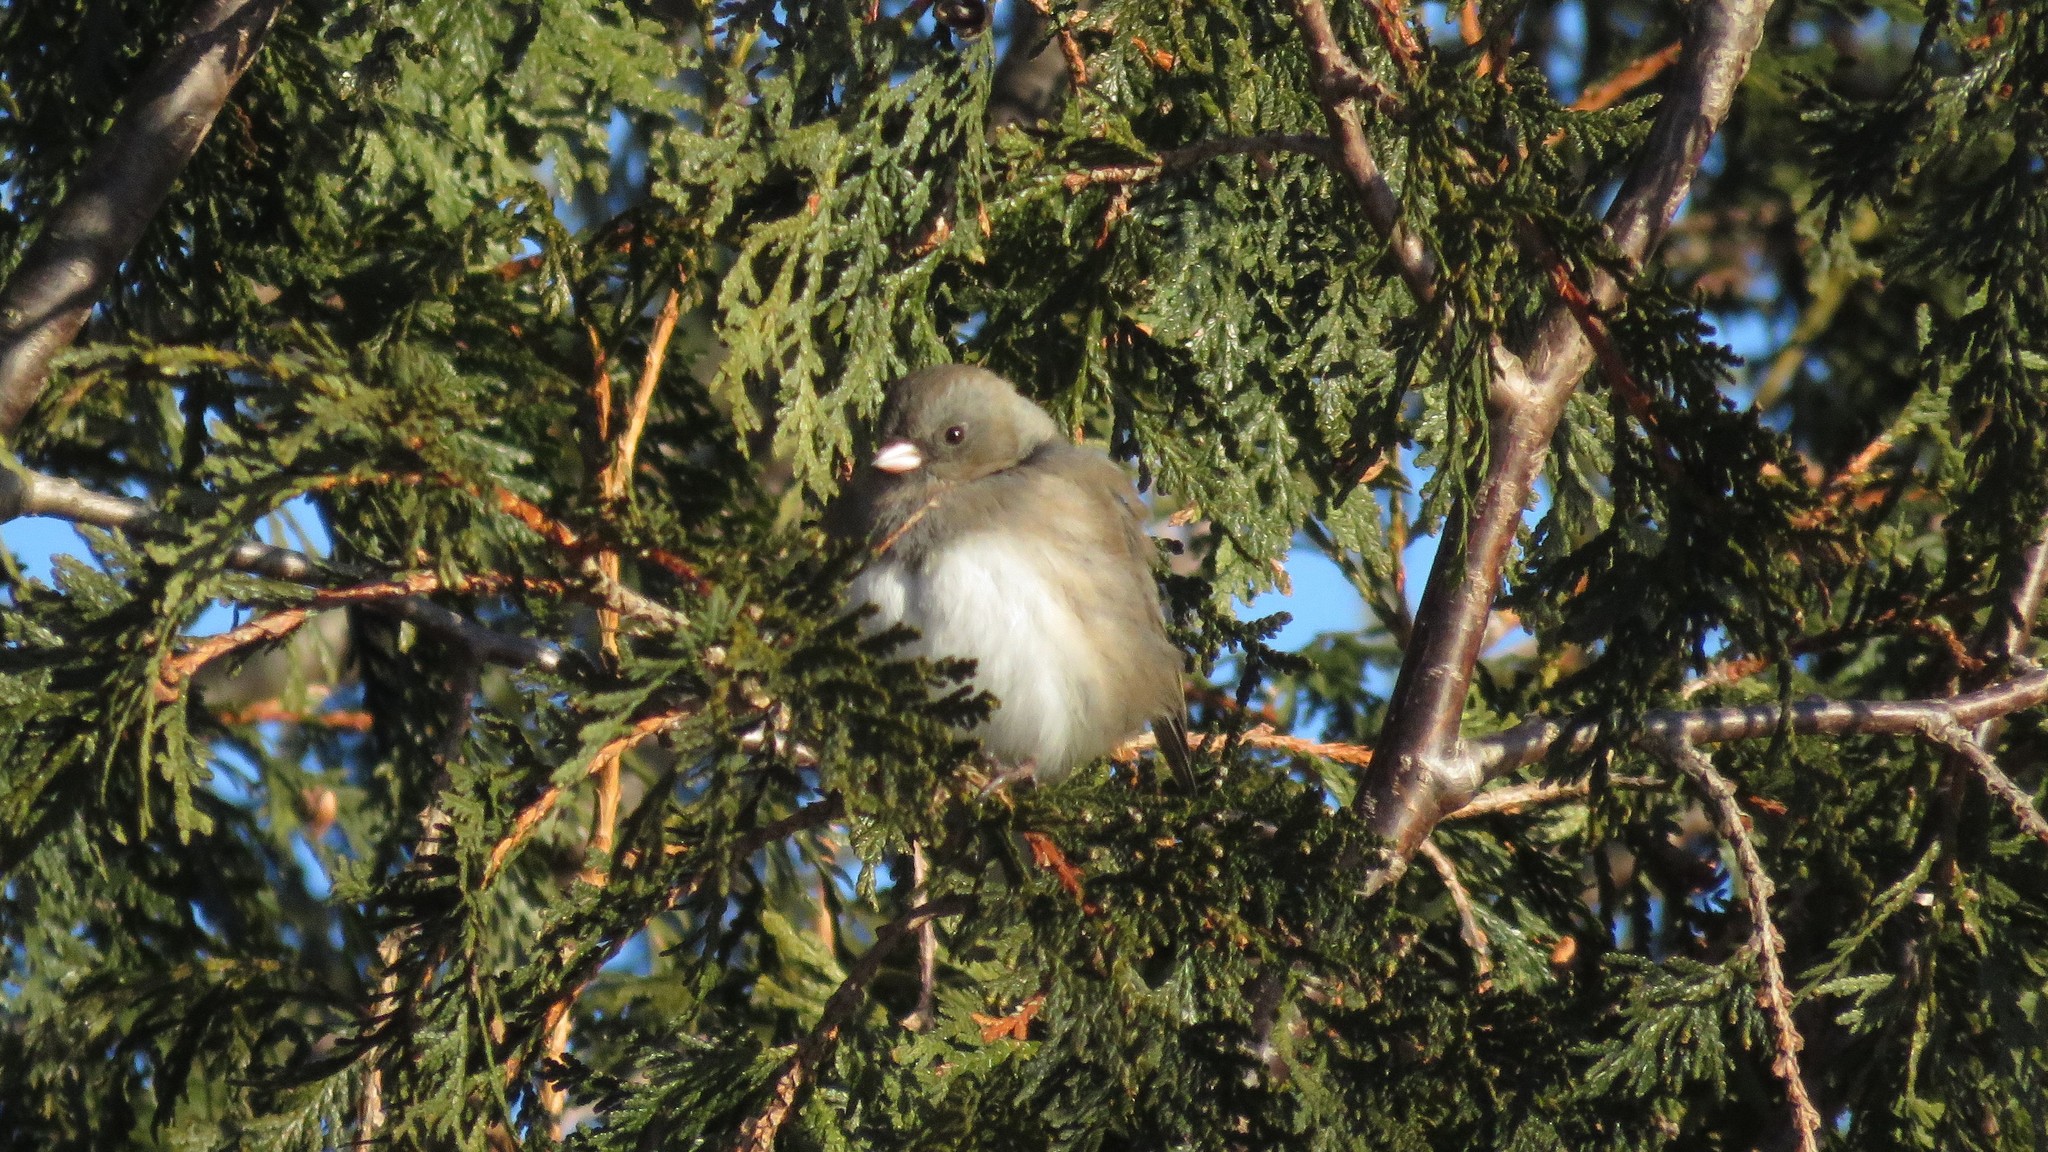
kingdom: Animalia
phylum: Chordata
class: Aves
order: Passeriformes
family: Passerellidae
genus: Junco
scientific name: Junco hyemalis
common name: Dark-eyed junco
